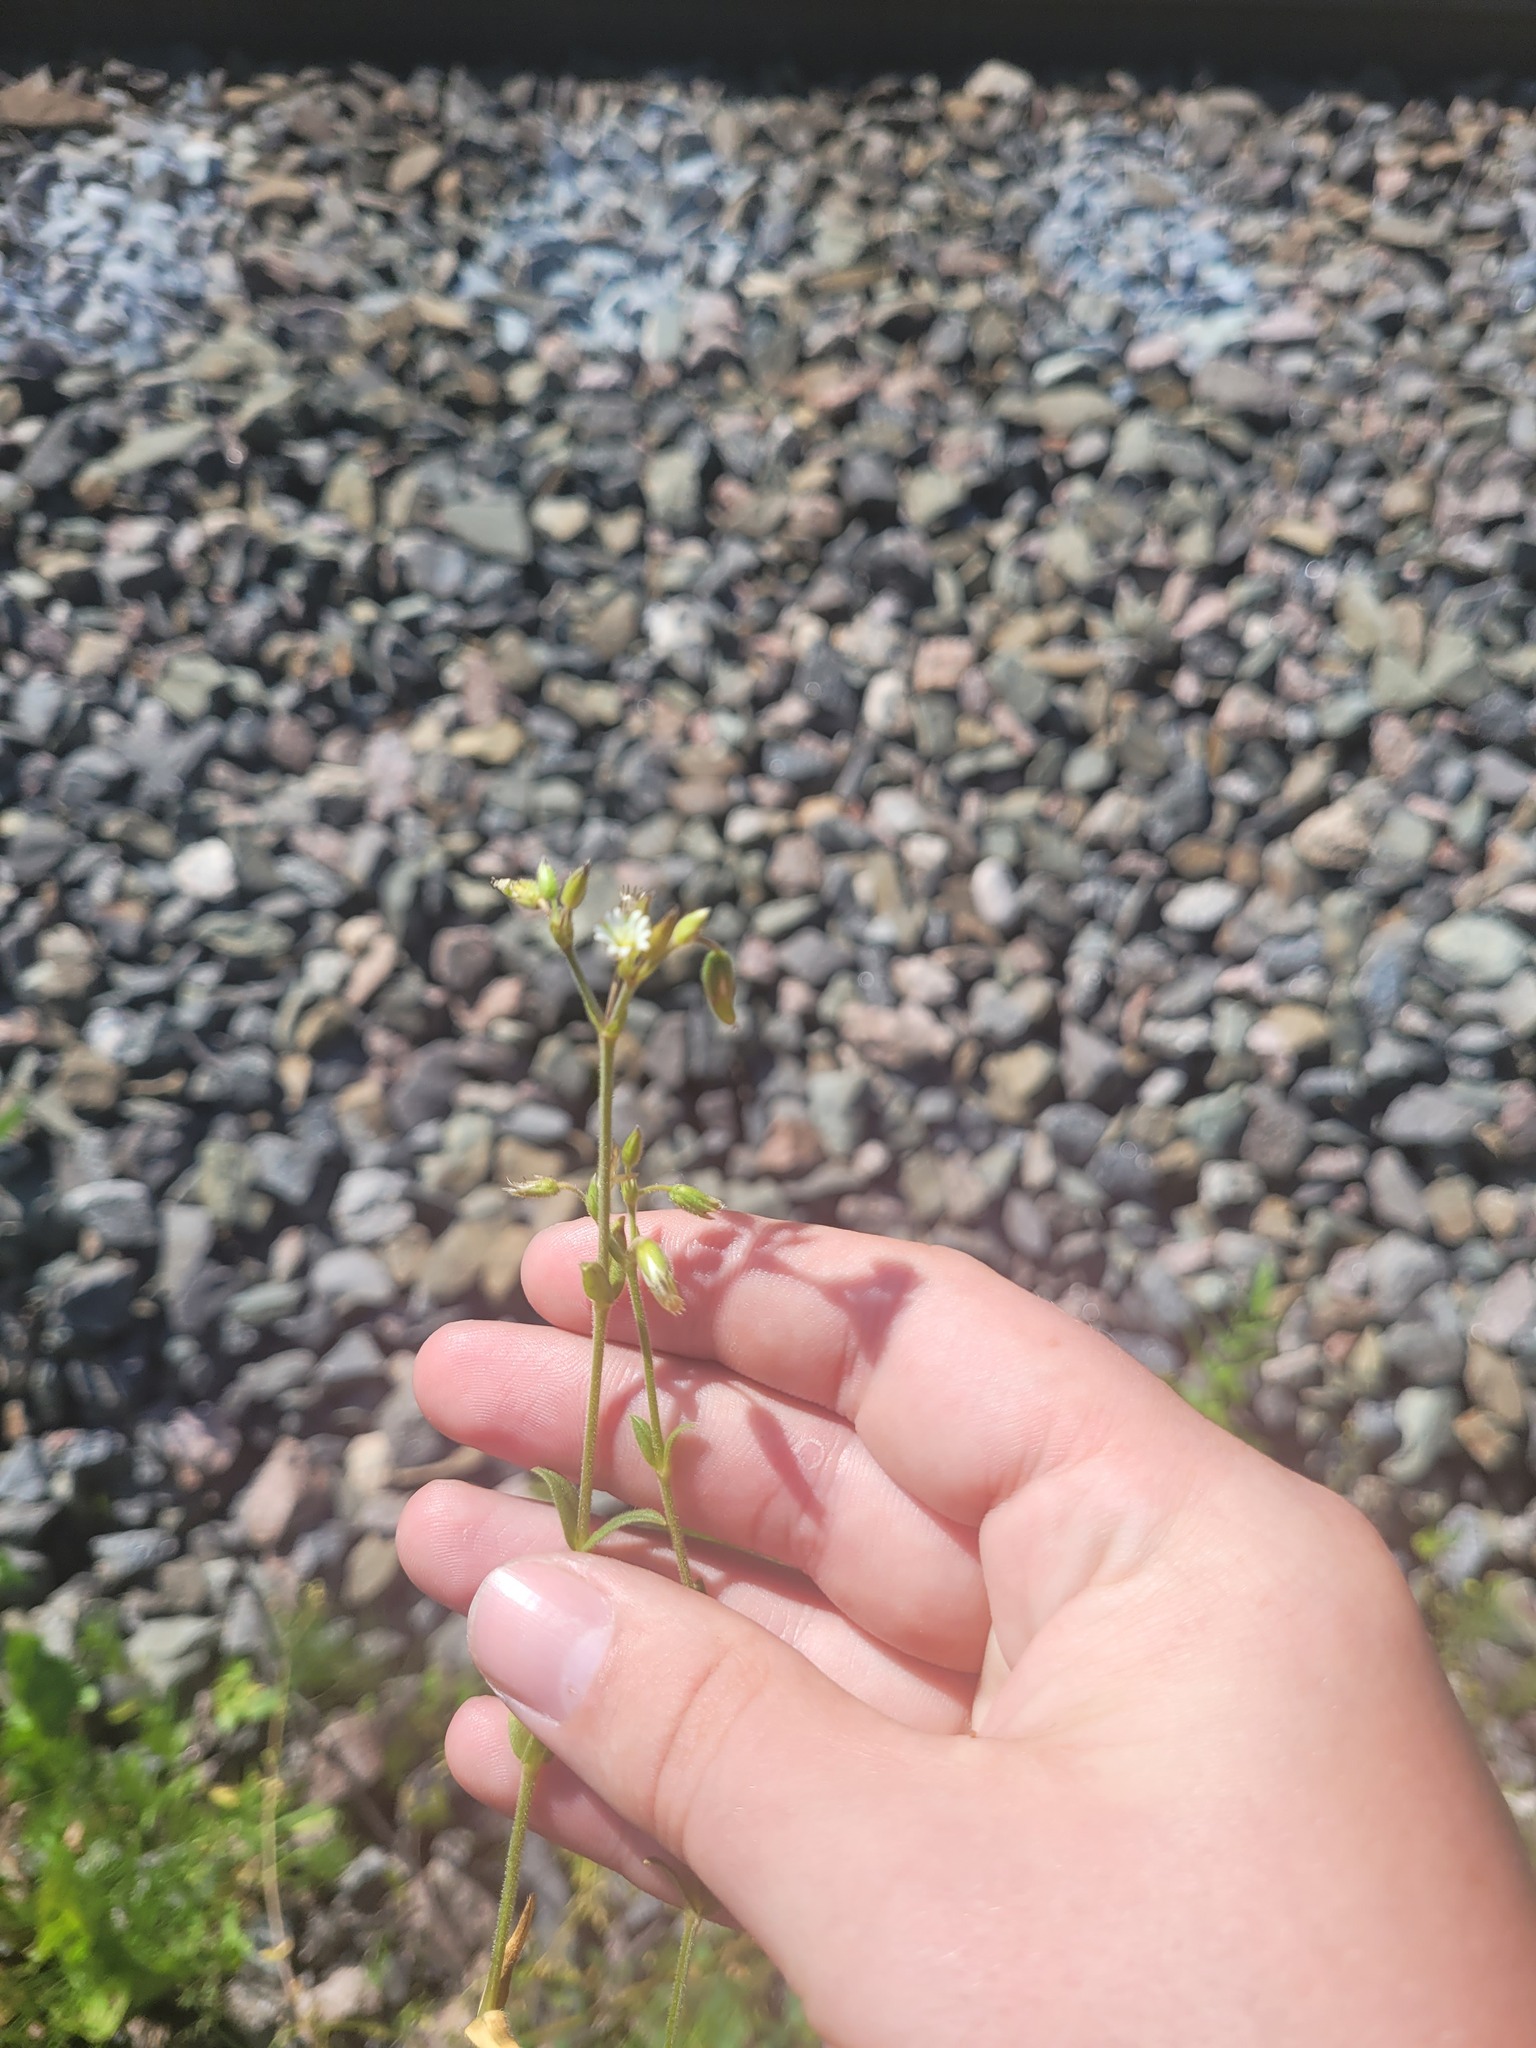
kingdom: Plantae
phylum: Tracheophyta
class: Magnoliopsida
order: Caryophyllales
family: Caryophyllaceae
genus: Cerastium
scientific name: Cerastium holosteoides
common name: Big chickweed
